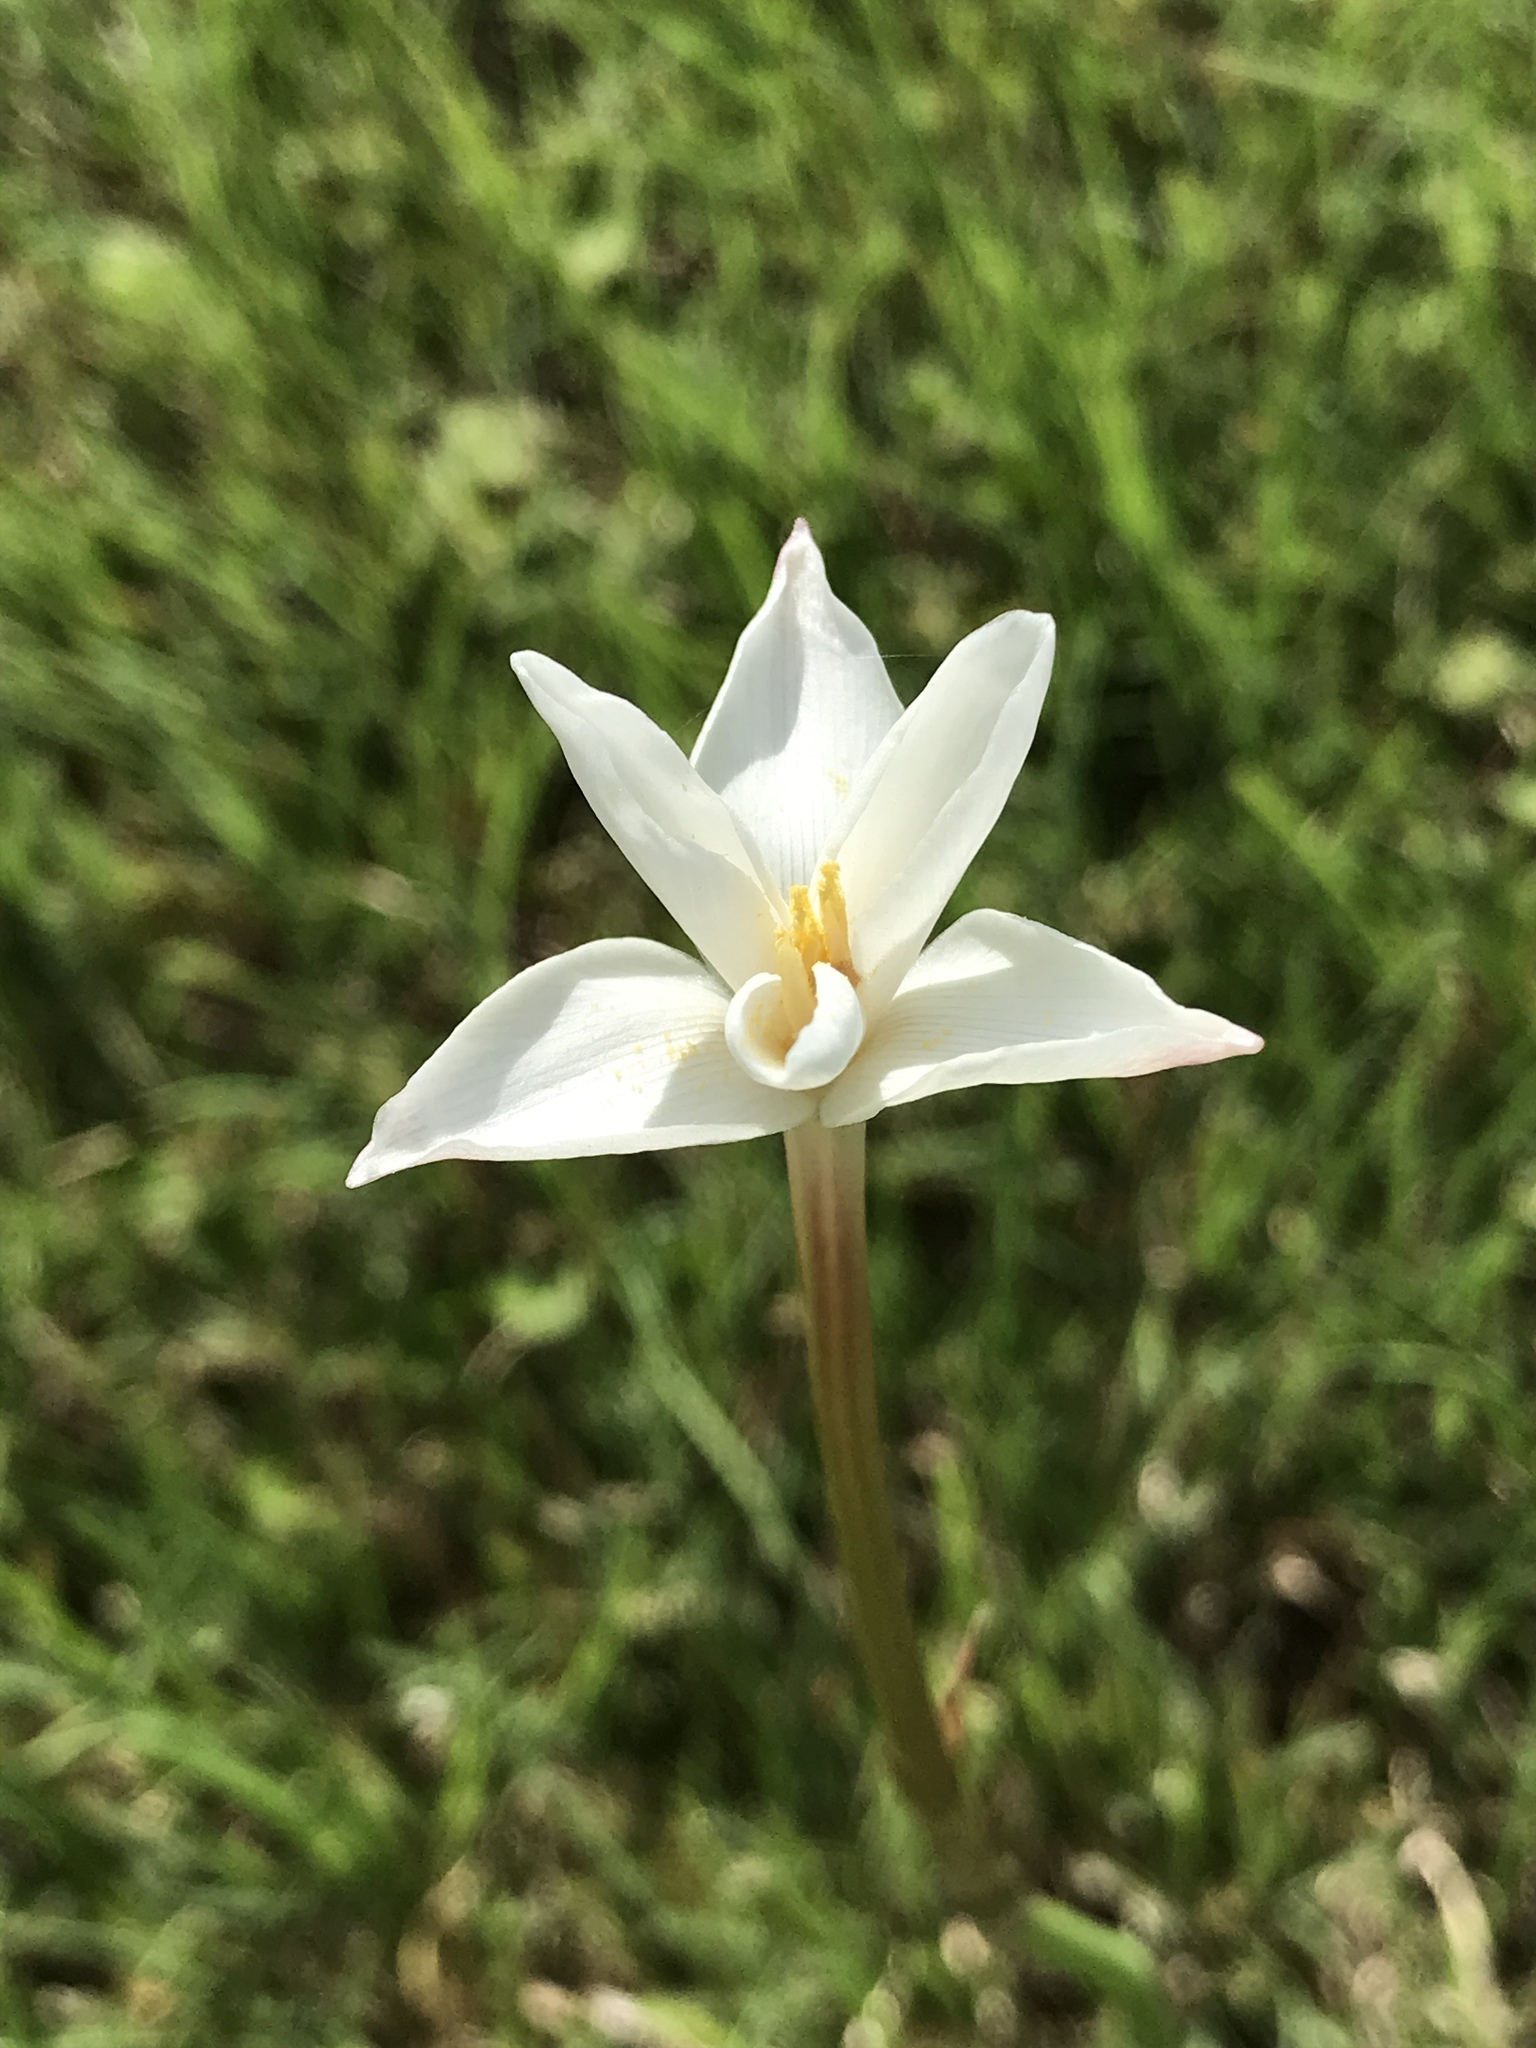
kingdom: Plantae
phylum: Tracheophyta
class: Liliopsida
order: Asparagales
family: Amaryllidaceae
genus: Zephyranthes
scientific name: Zephyranthes chlorosolen
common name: Evening rain-lily
